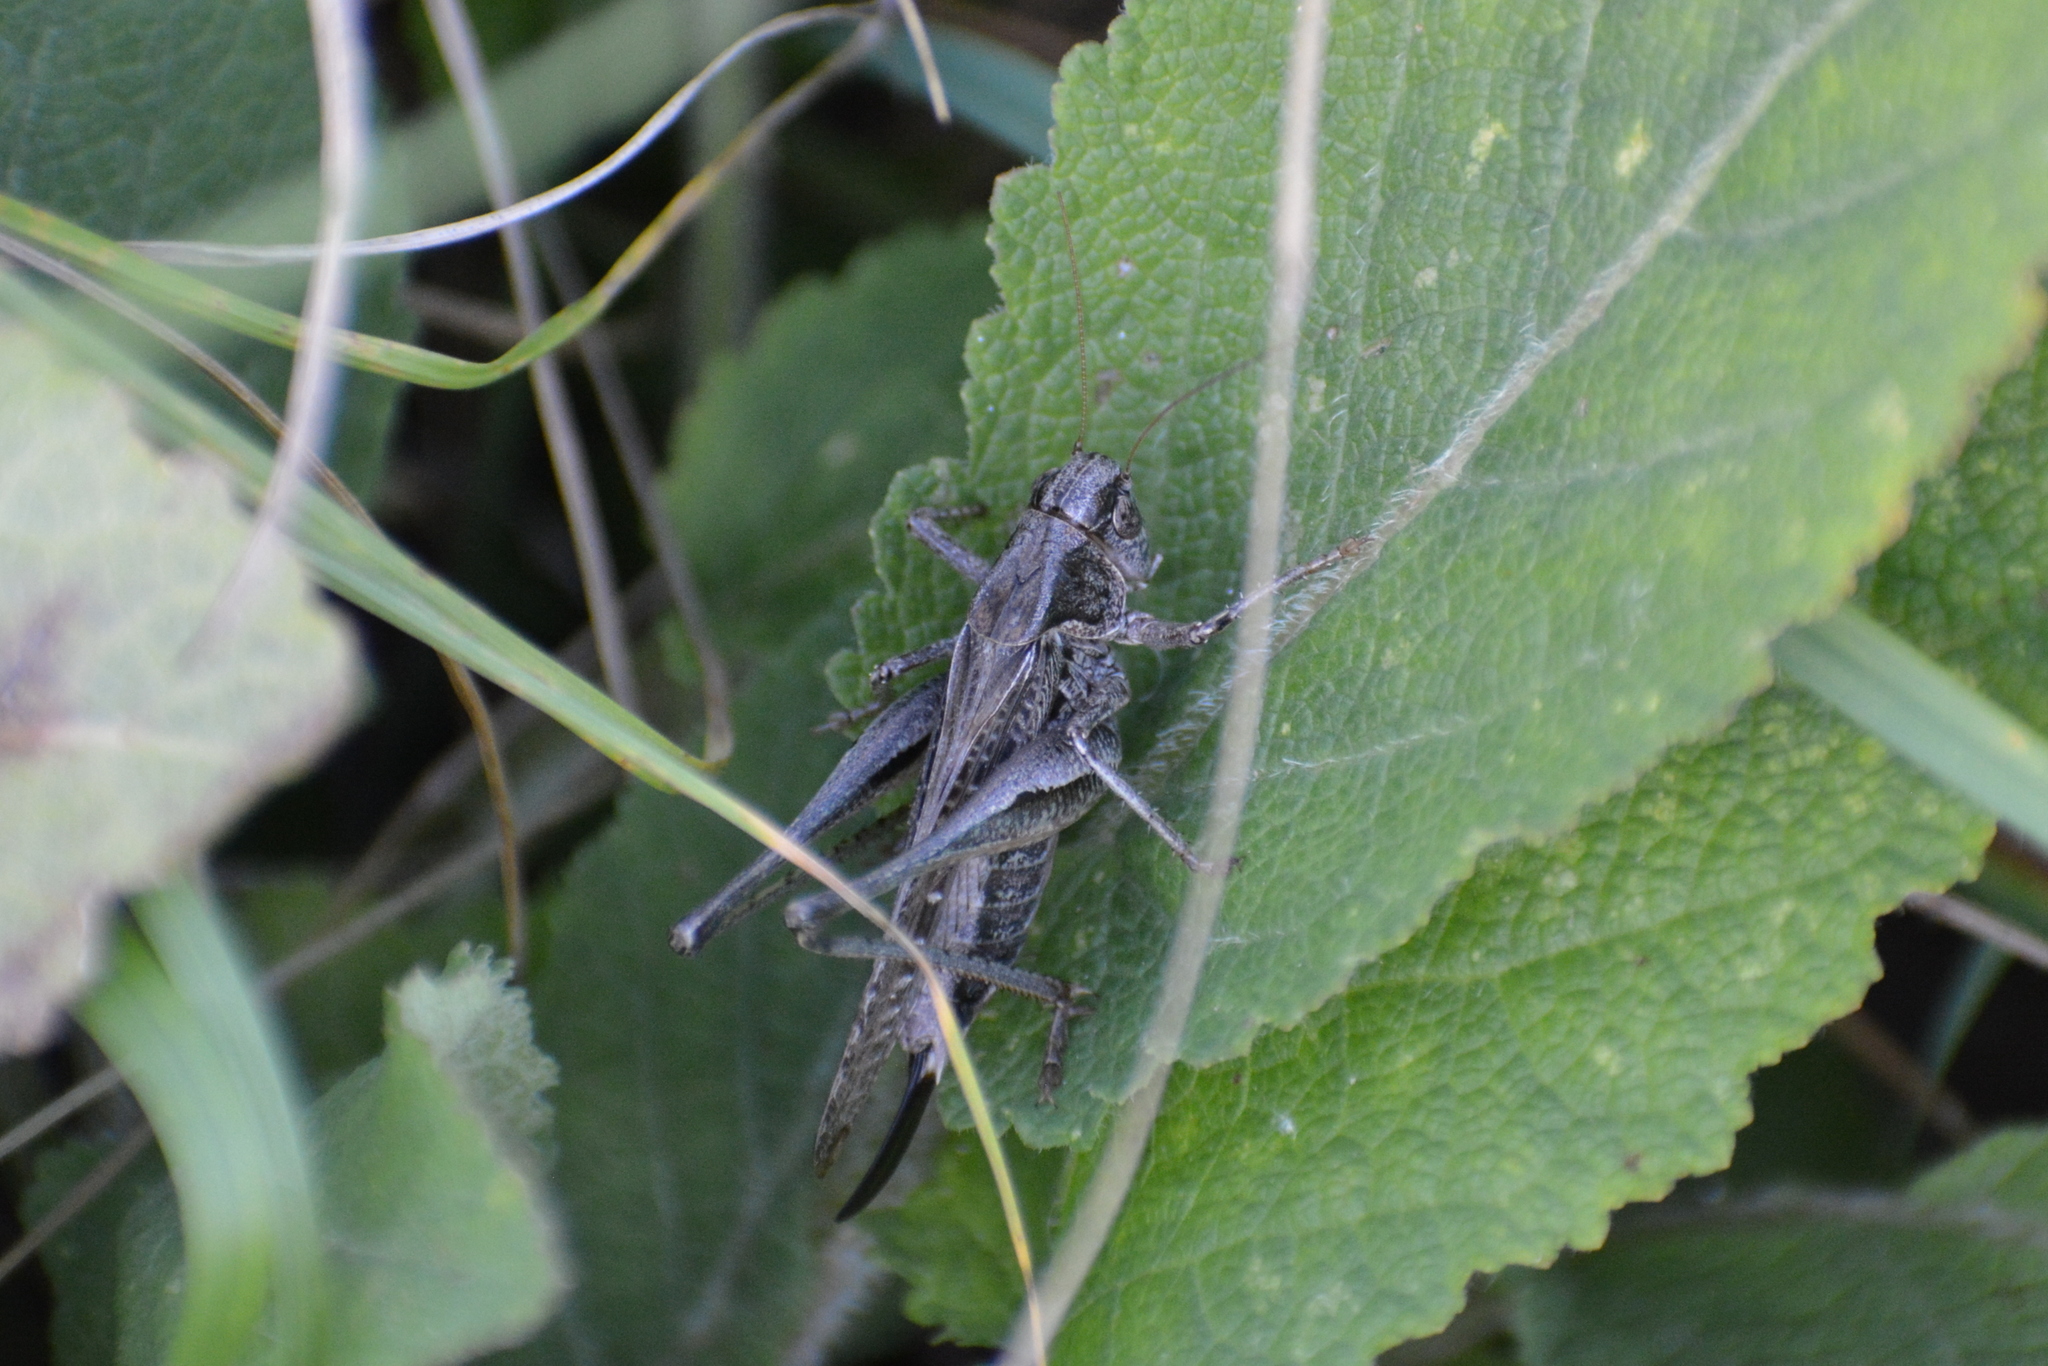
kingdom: Animalia
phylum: Arthropoda
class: Insecta
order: Orthoptera
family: Tettigoniidae
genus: Platycleis
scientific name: Platycleis albopunctata
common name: Grey bush-cricket
